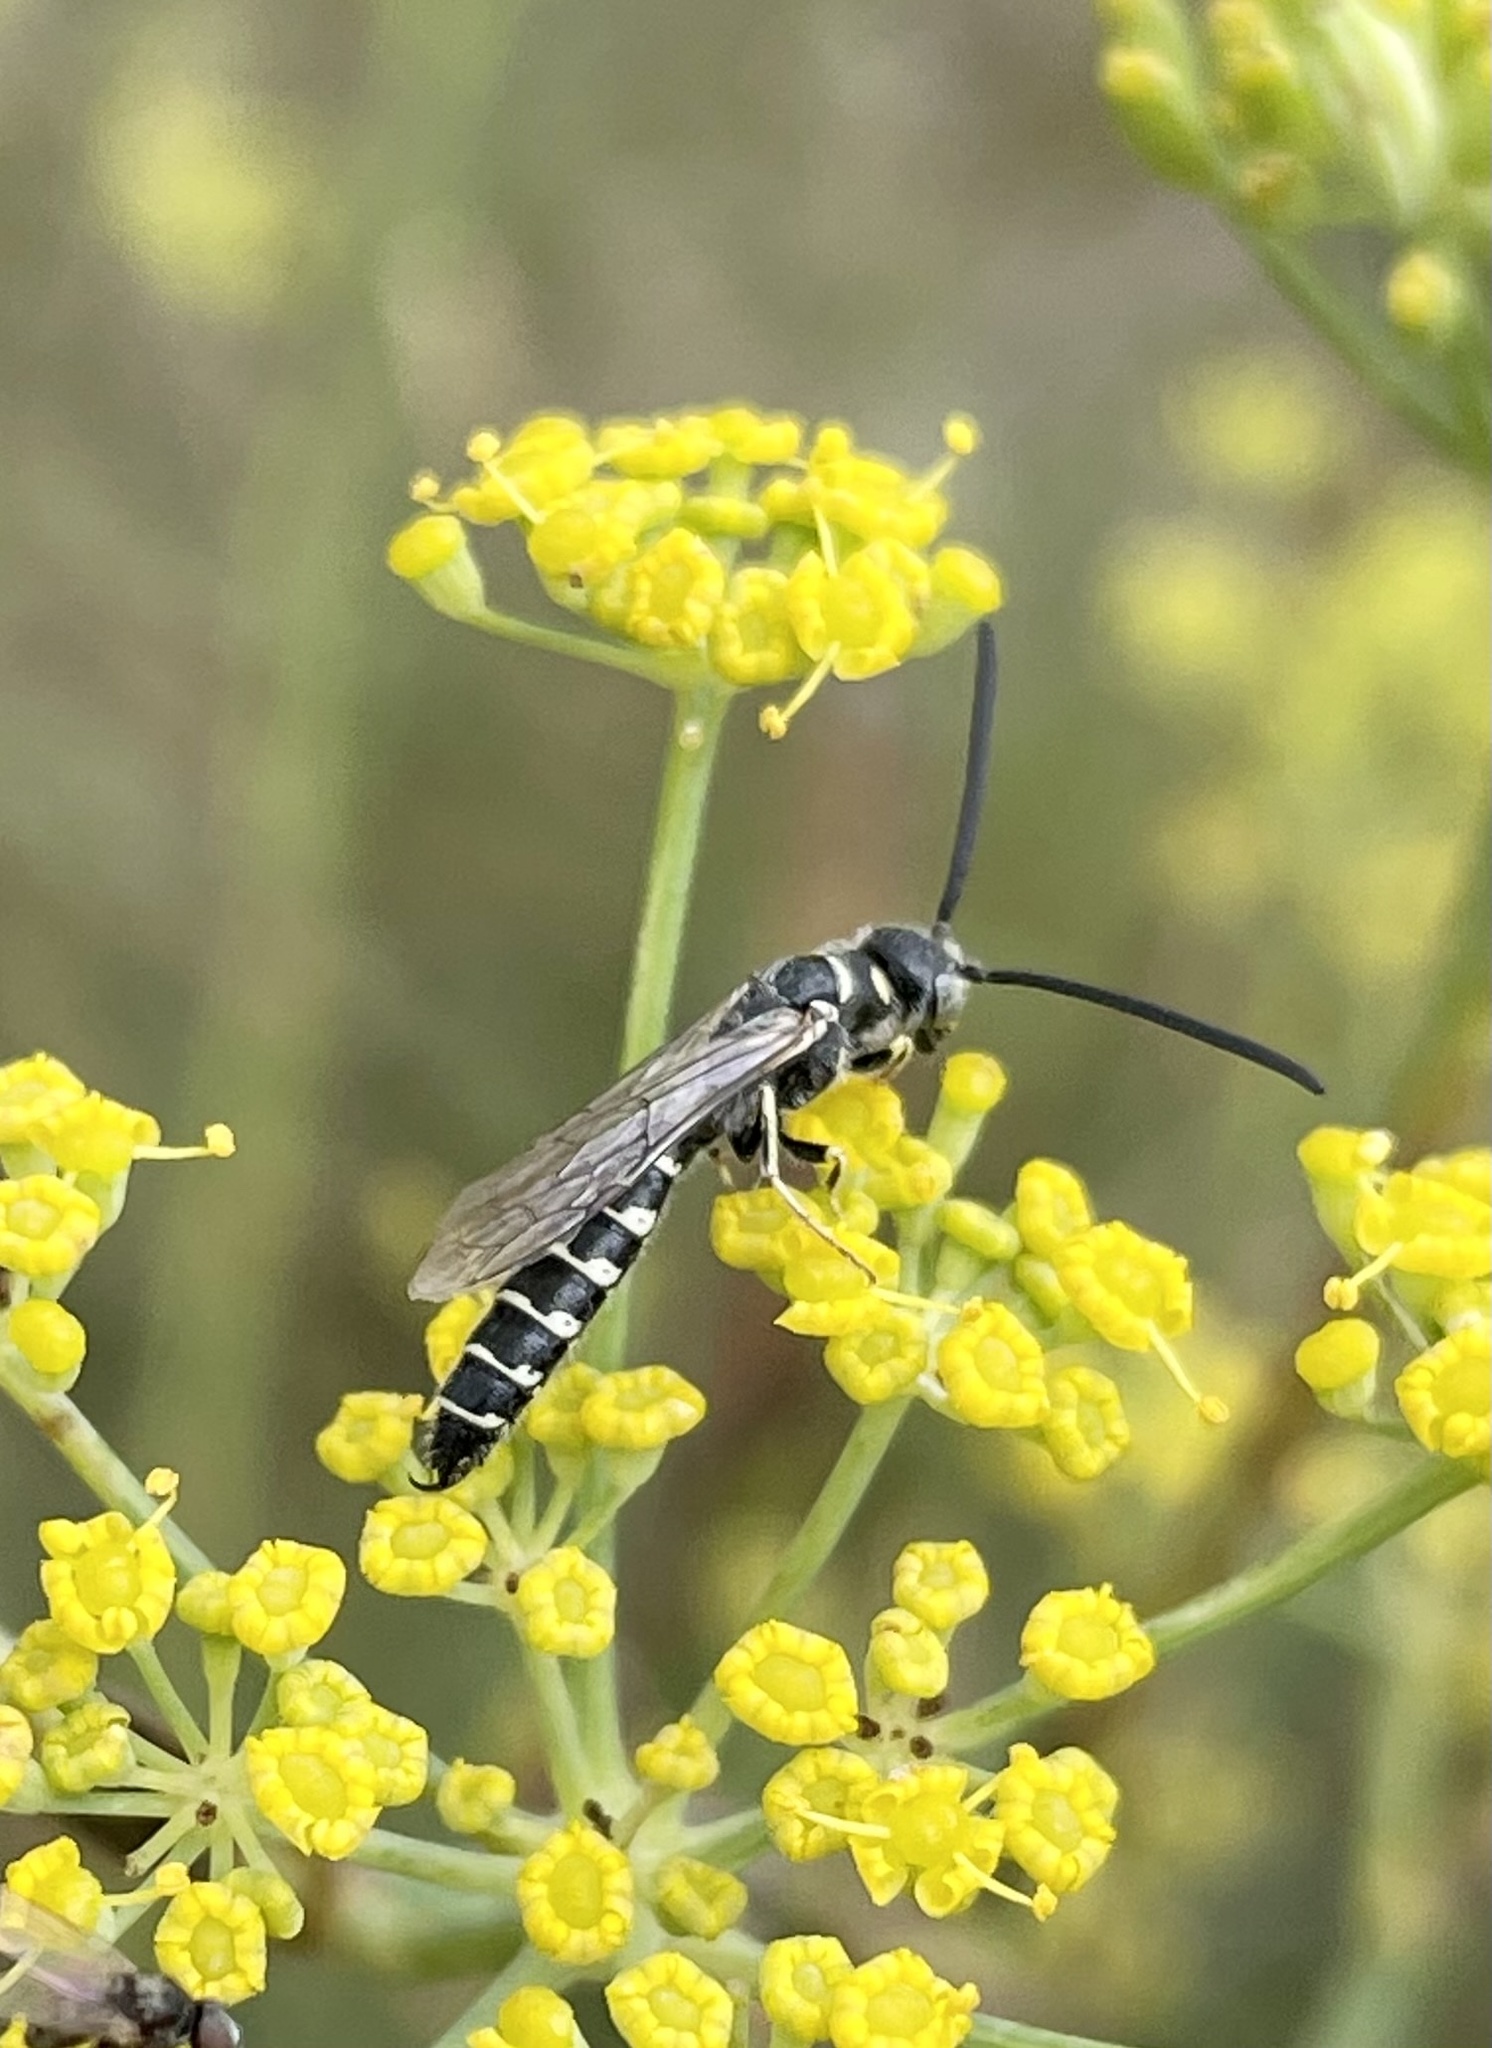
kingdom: Animalia
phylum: Arthropoda
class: Insecta
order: Hymenoptera
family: Tiphiidae
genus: Meria
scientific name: Meria tripunctata
